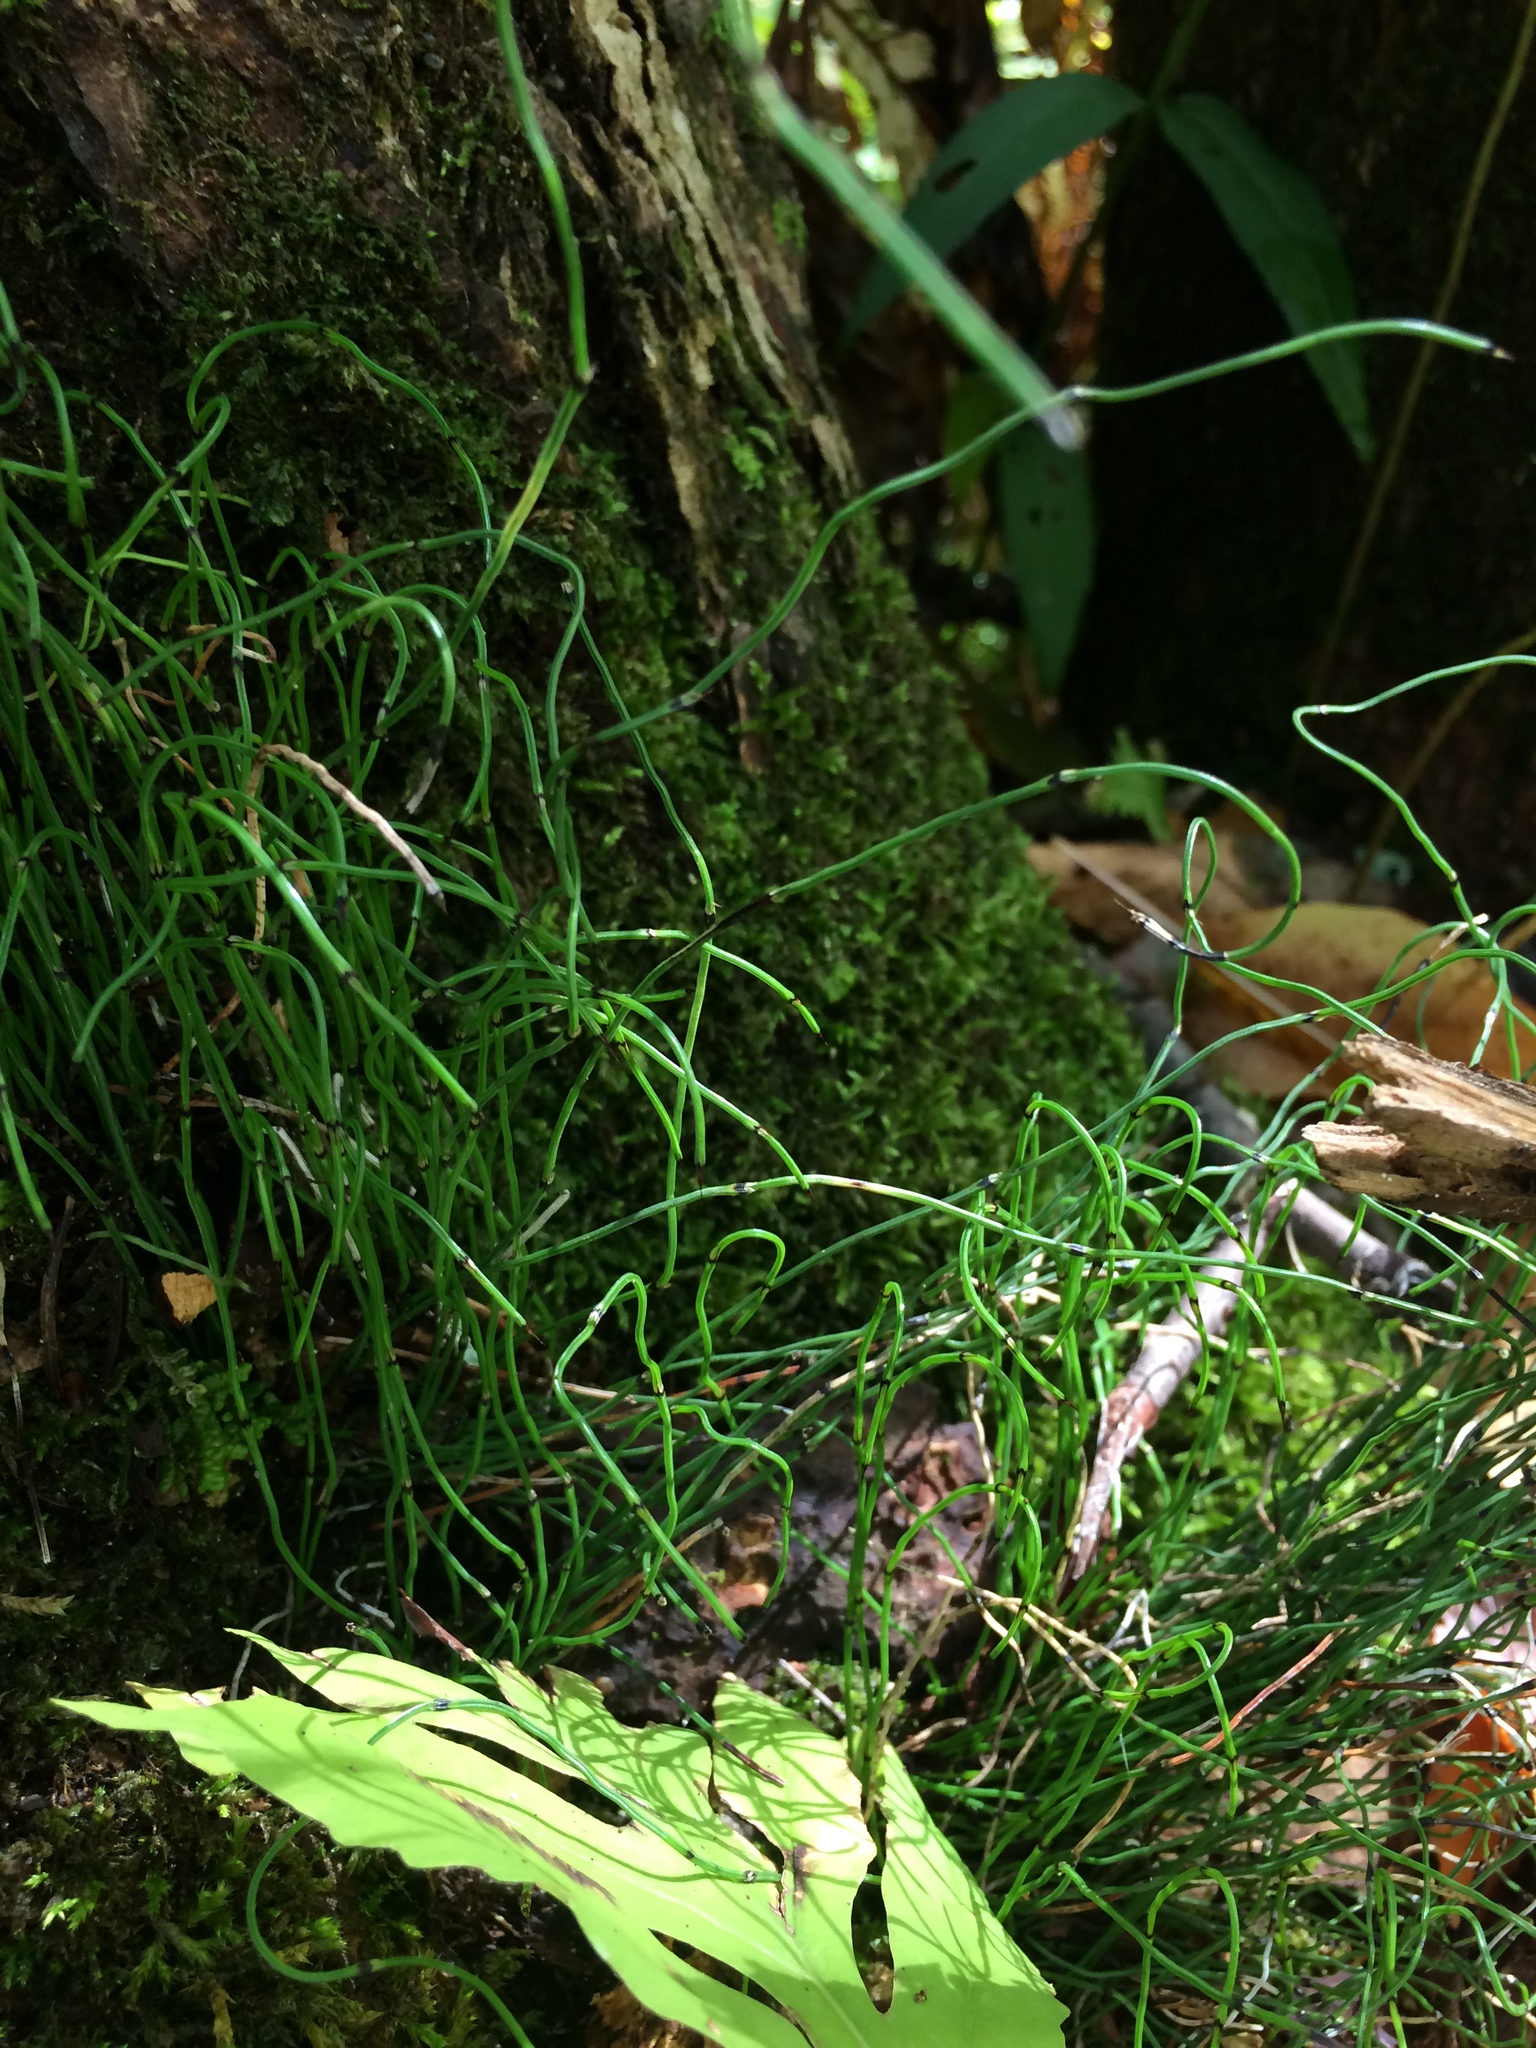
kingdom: Plantae
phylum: Tracheophyta
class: Polypodiopsida
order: Equisetales
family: Equisetaceae
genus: Equisetum
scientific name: Equisetum scirpoides
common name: Delicate horsetail
